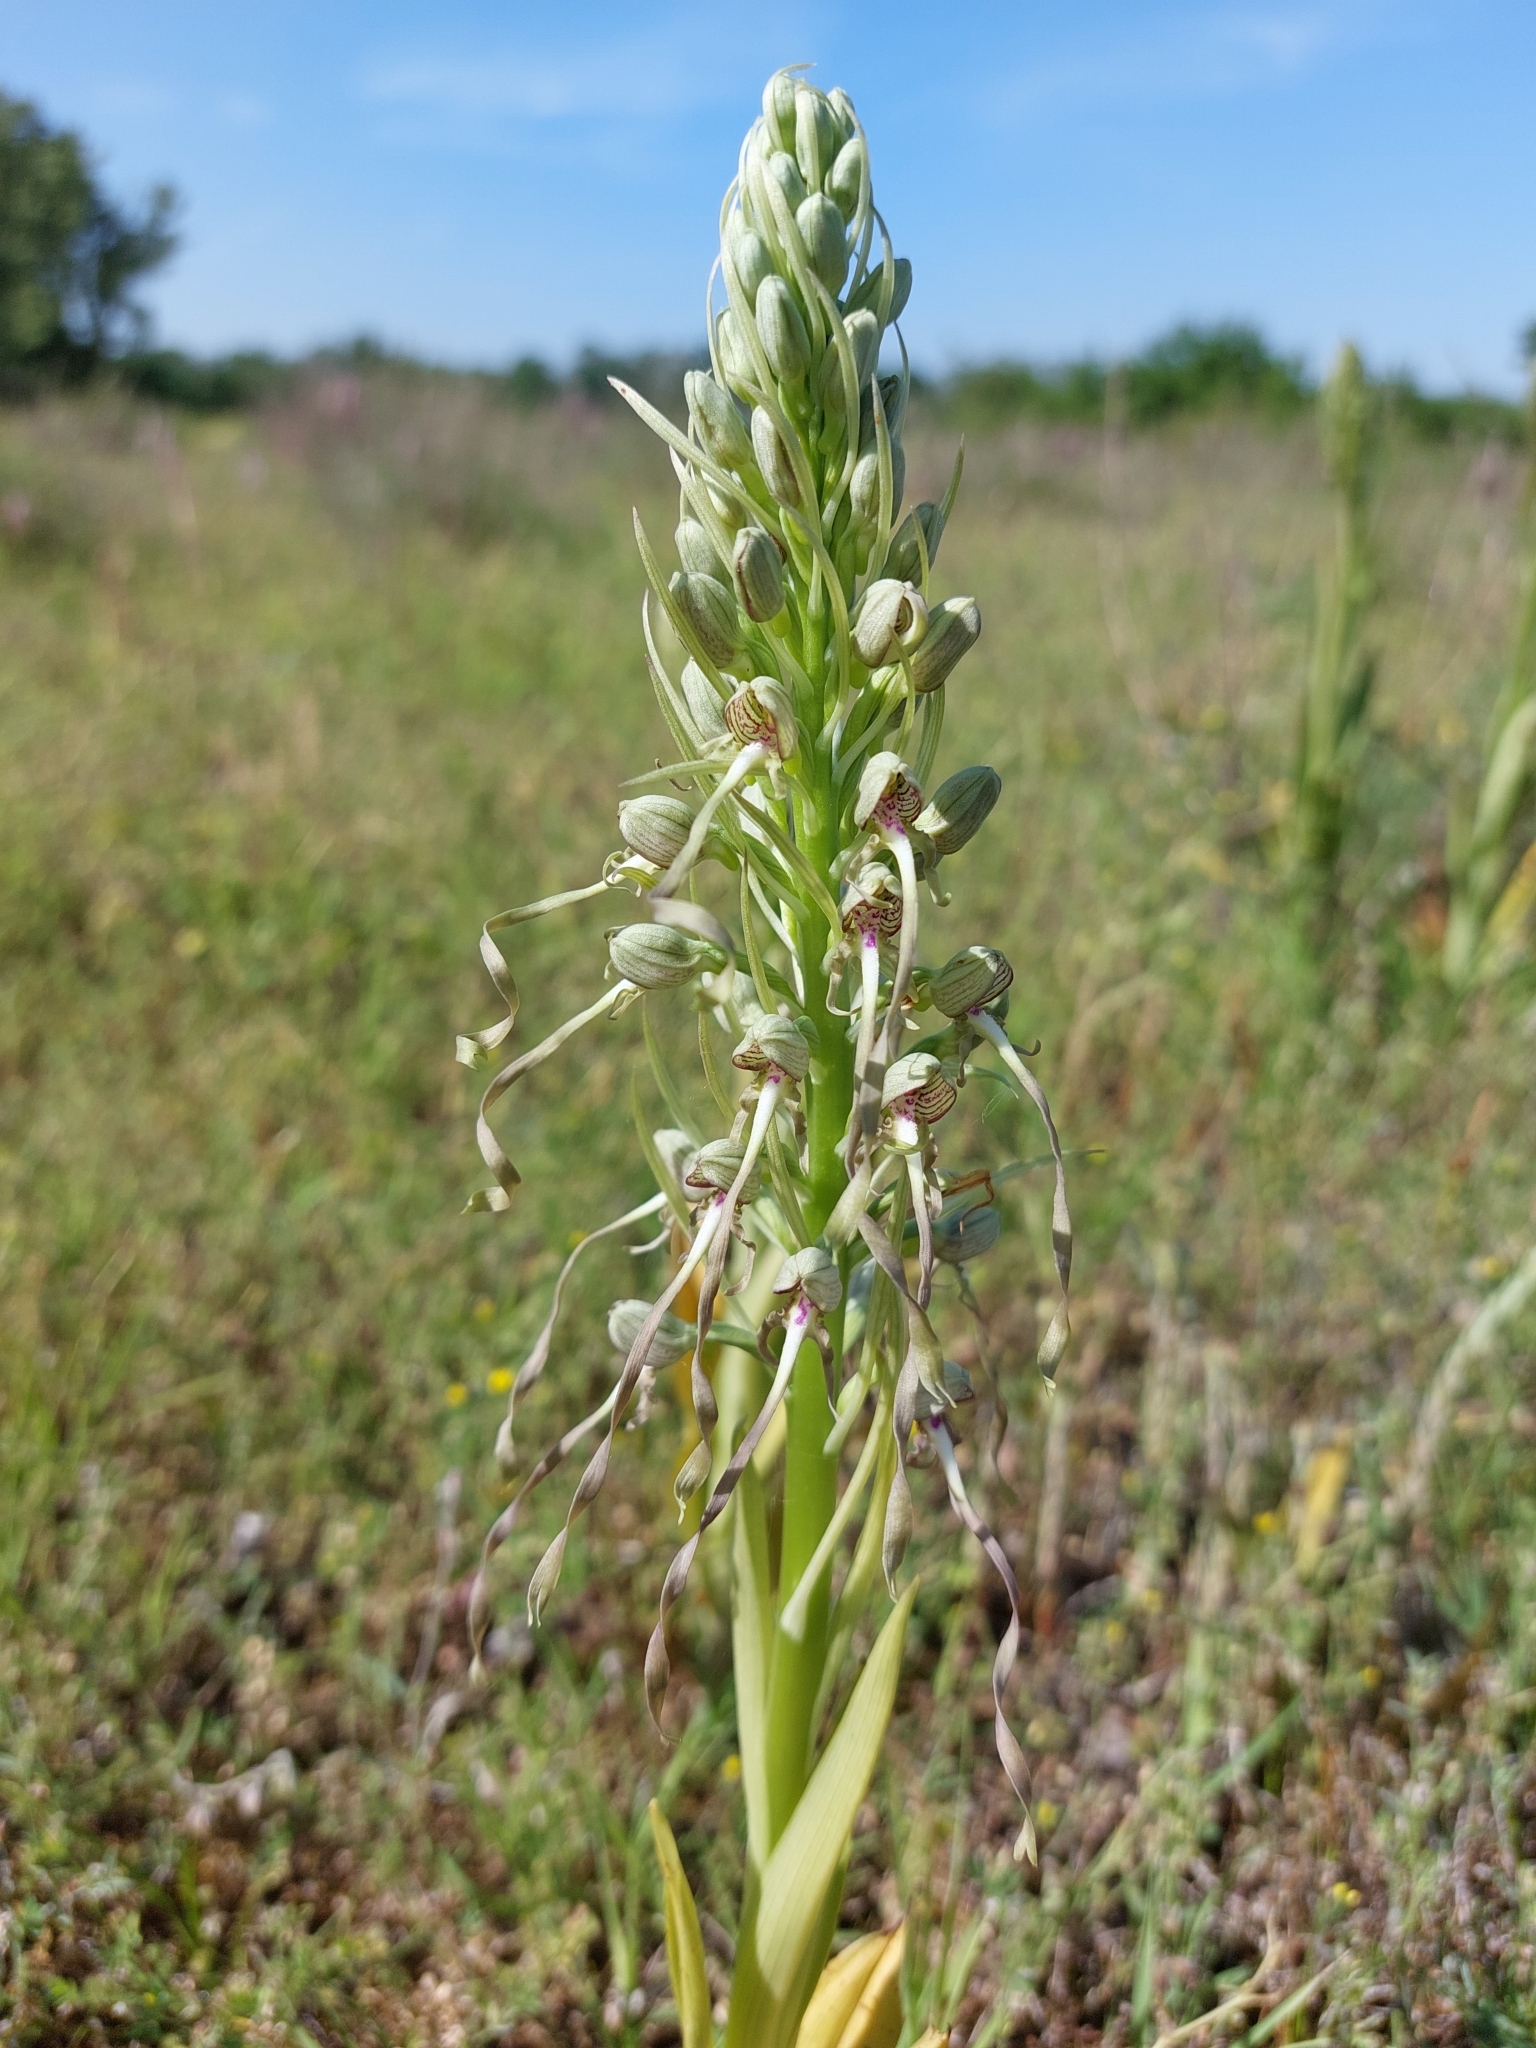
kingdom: Plantae
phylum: Tracheophyta
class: Liliopsida
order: Asparagales
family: Orchidaceae
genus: Himantoglossum
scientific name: Himantoglossum hircinum
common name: Lizard orchid
